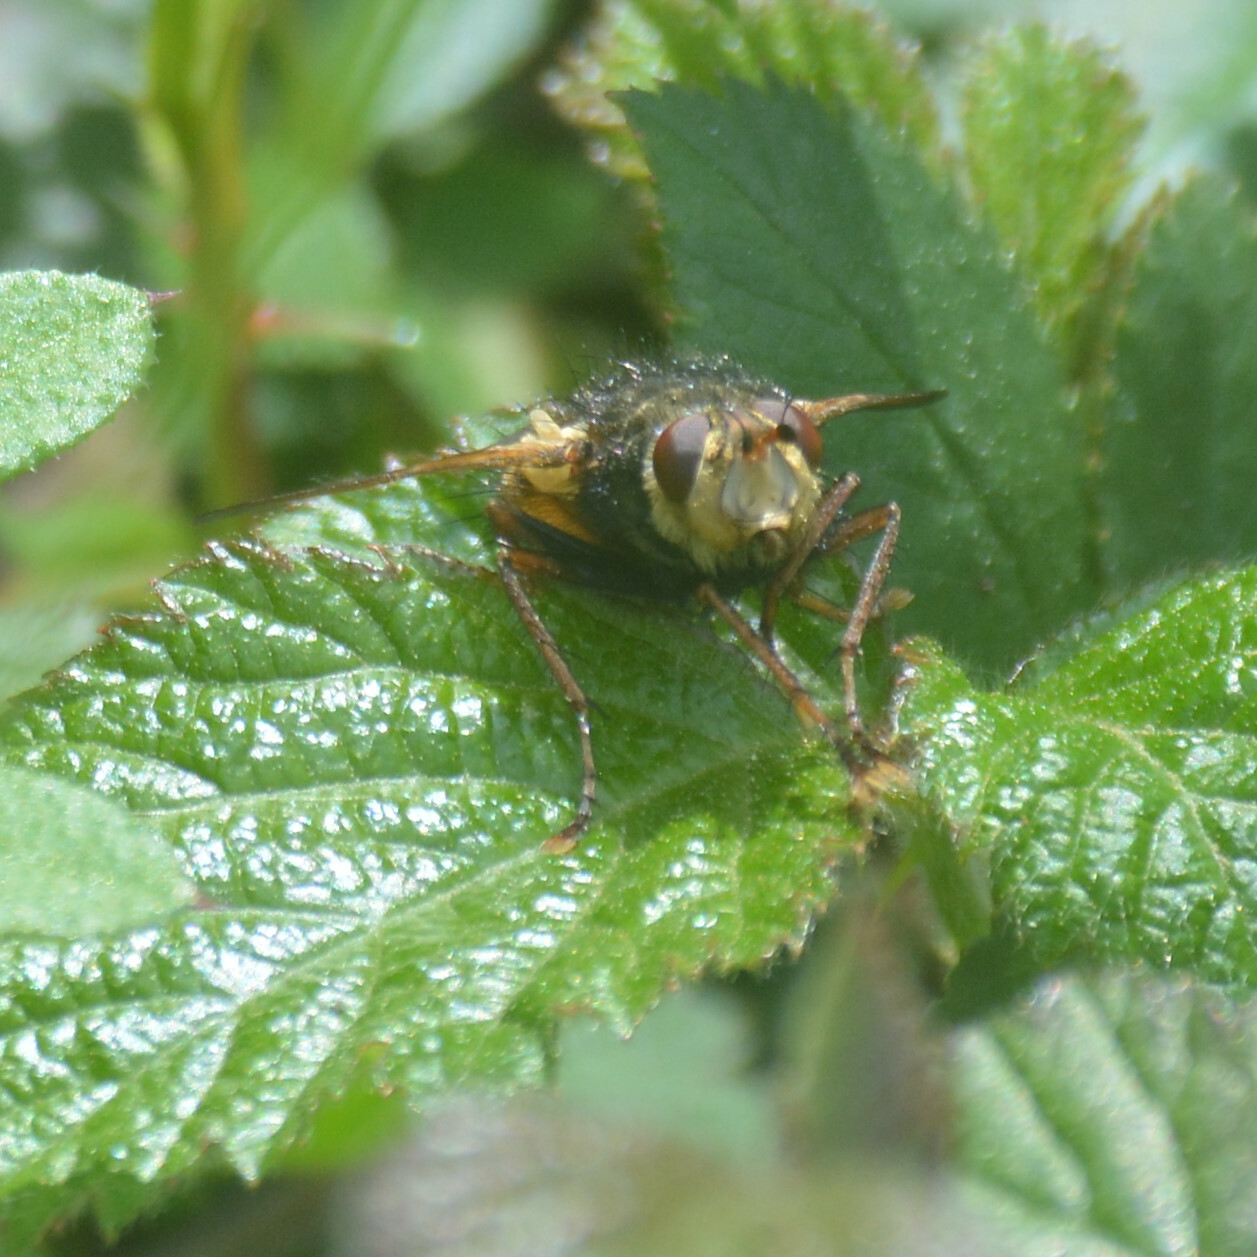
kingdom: Animalia
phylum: Arthropoda
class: Insecta
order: Diptera
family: Tachinidae
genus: Tachina
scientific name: Tachina fera
